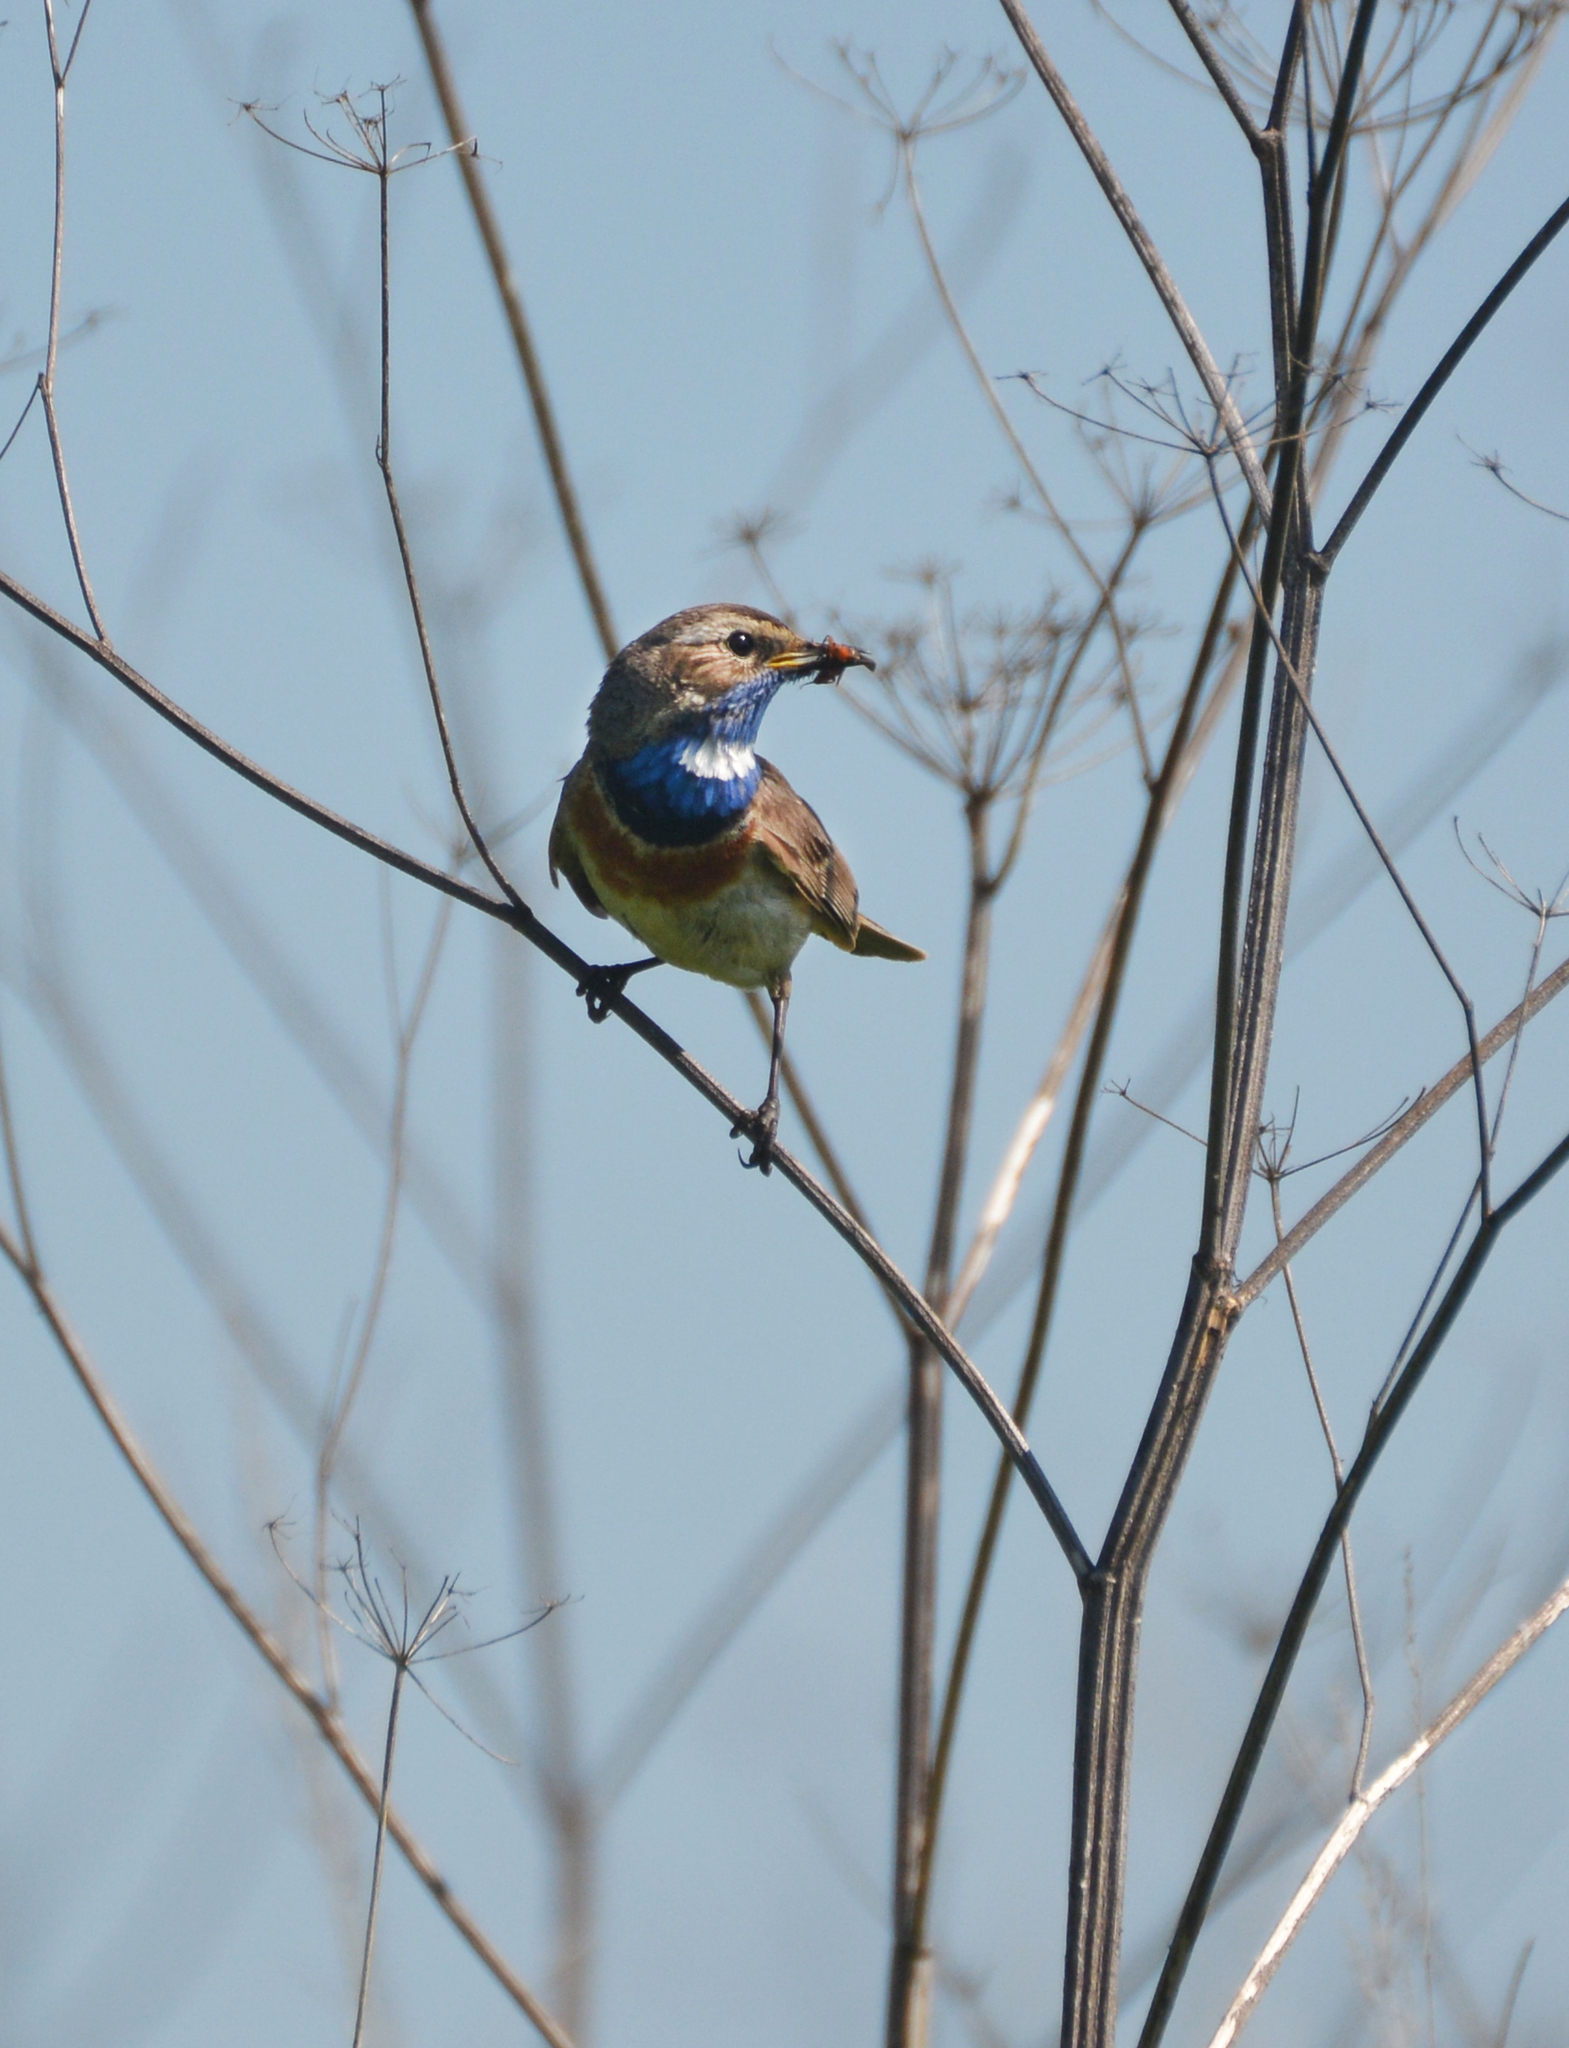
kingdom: Animalia
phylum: Chordata
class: Aves
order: Passeriformes
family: Muscicapidae
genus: Luscinia
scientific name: Luscinia svecica
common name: Bluethroat
